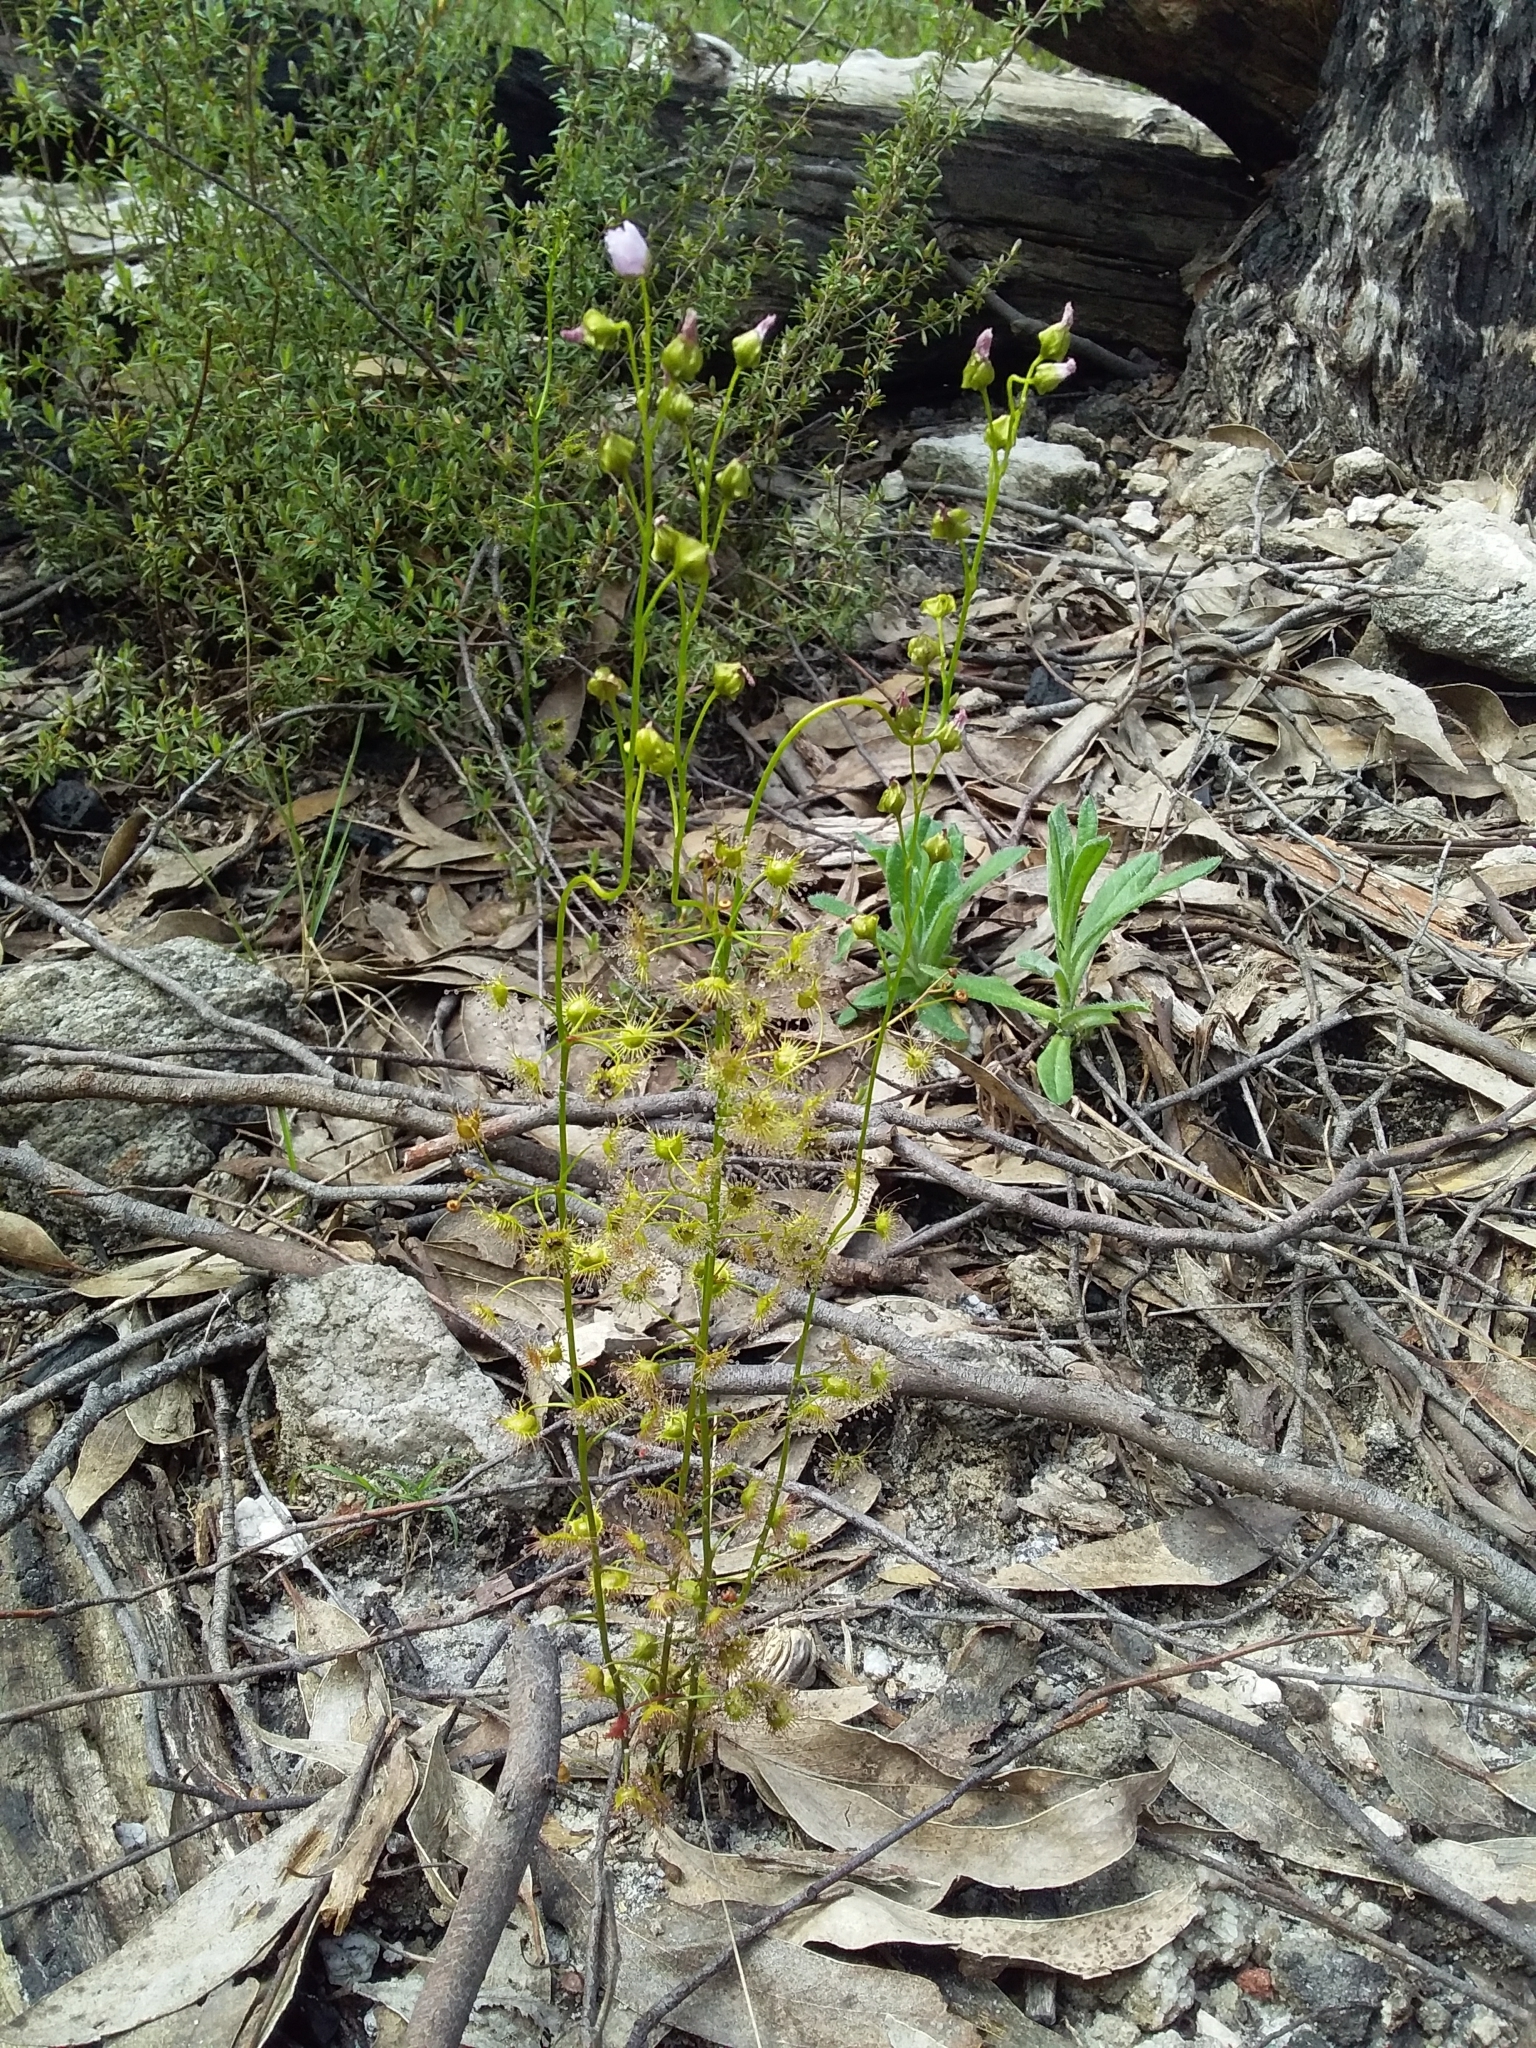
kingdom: Plantae
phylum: Tracheophyta
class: Magnoliopsida
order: Caryophyllales
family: Droseraceae
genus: Drosera
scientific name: Drosera peltata
